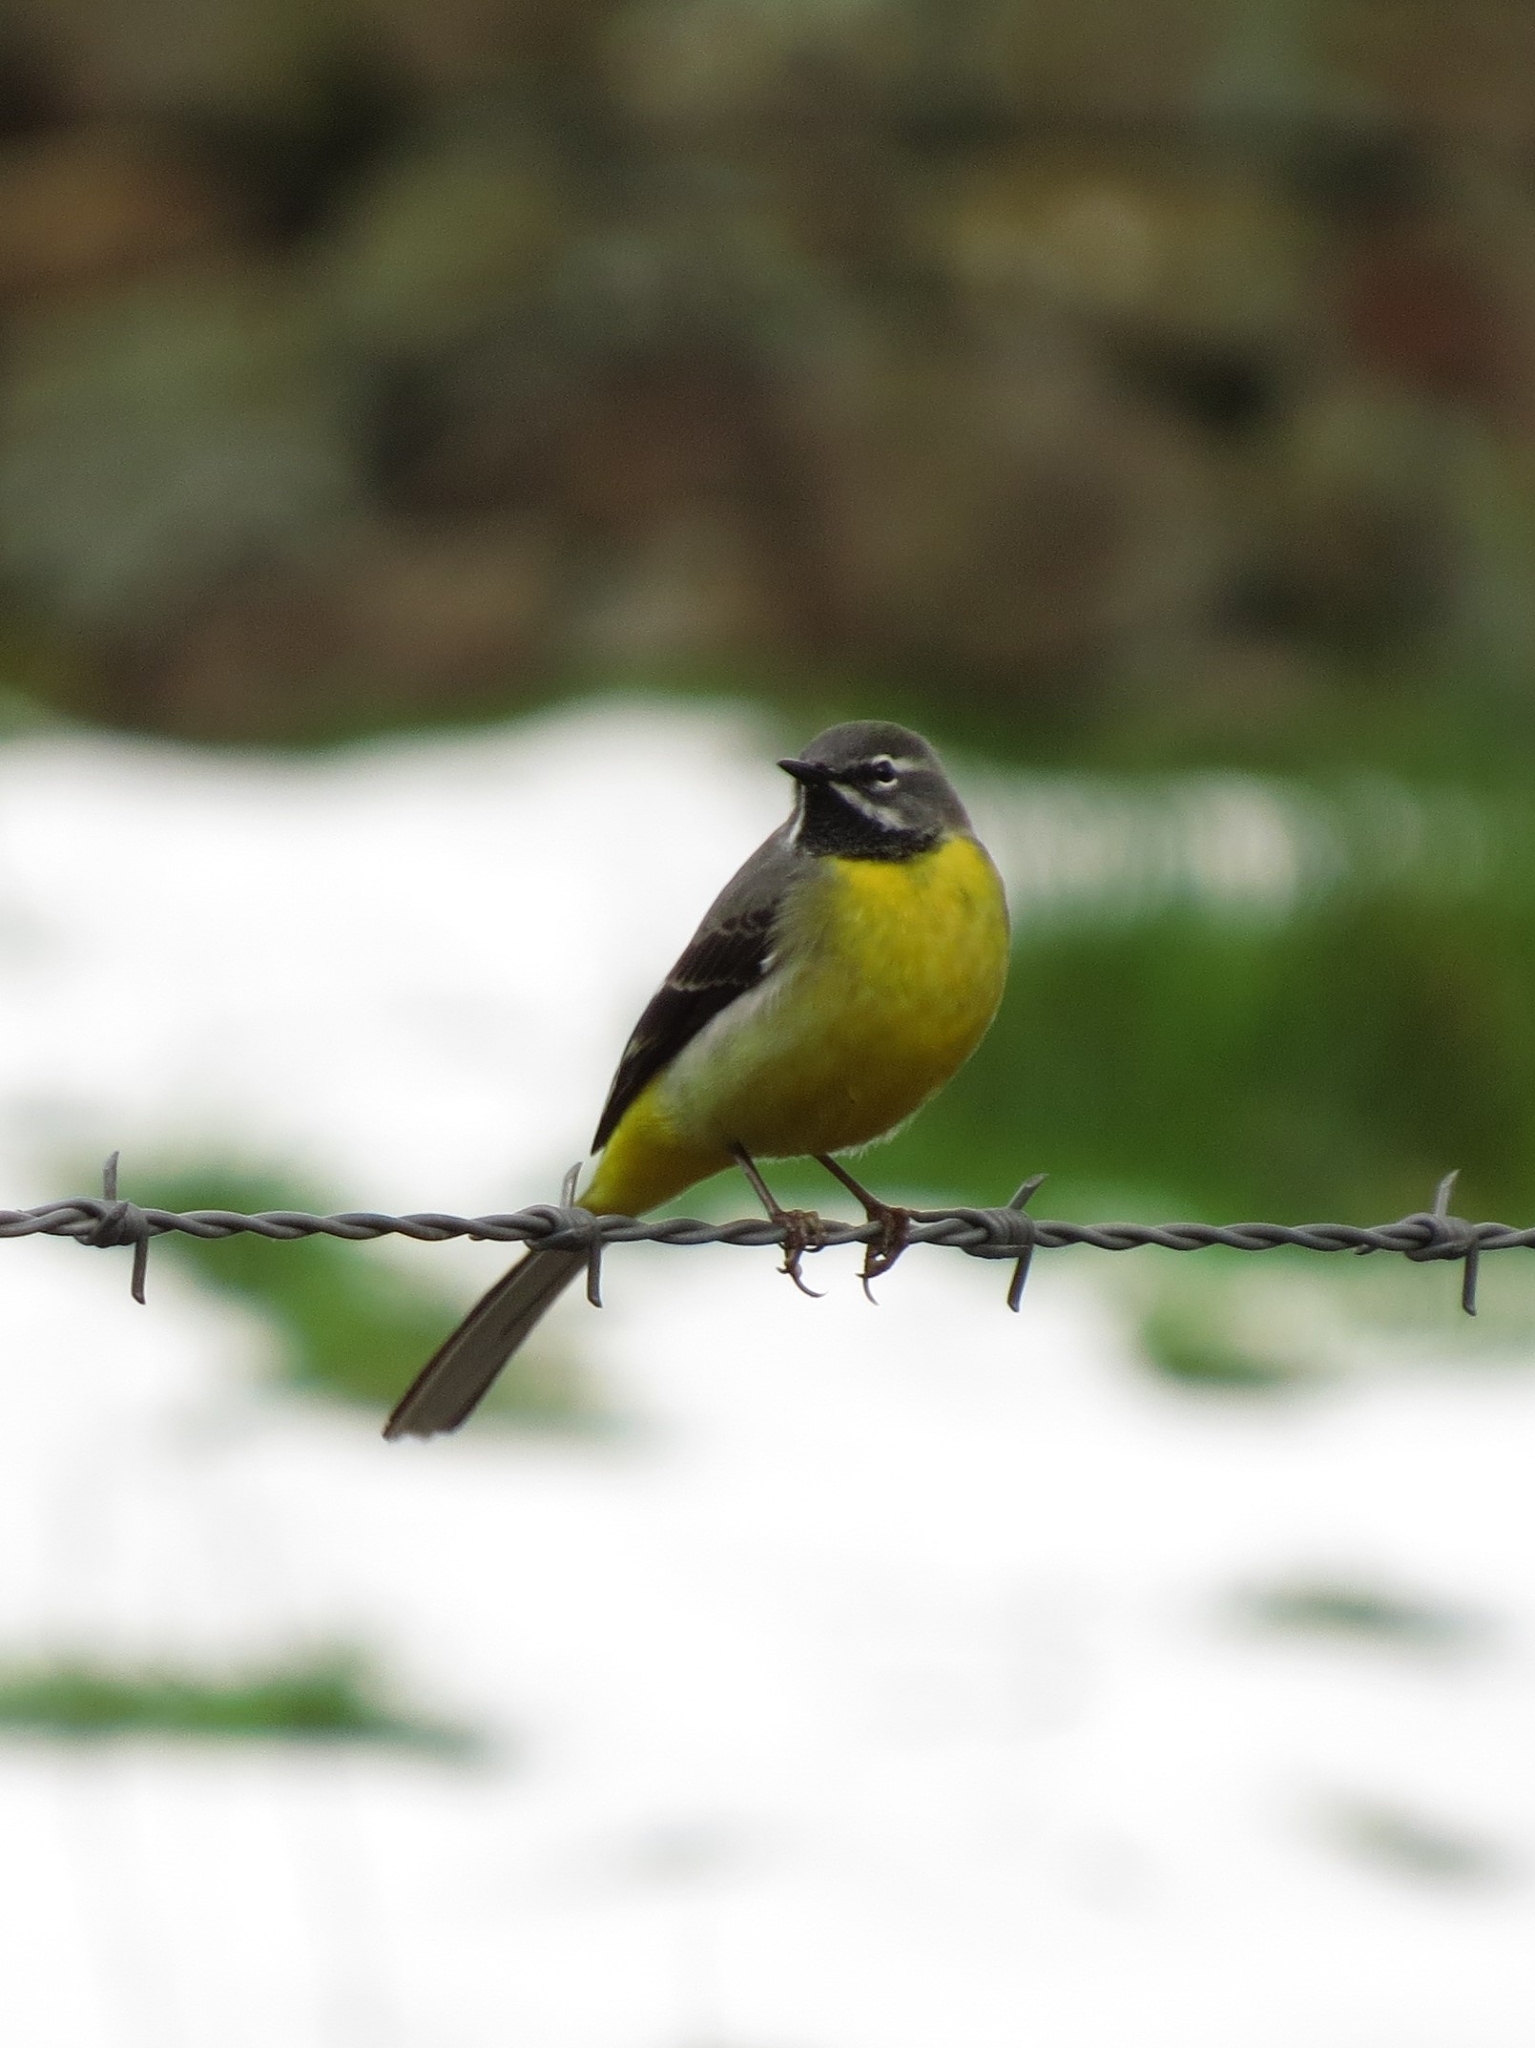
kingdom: Animalia
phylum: Chordata
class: Aves
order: Passeriformes
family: Motacillidae
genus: Motacilla
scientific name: Motacilla cinerea
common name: Grey wagtail
